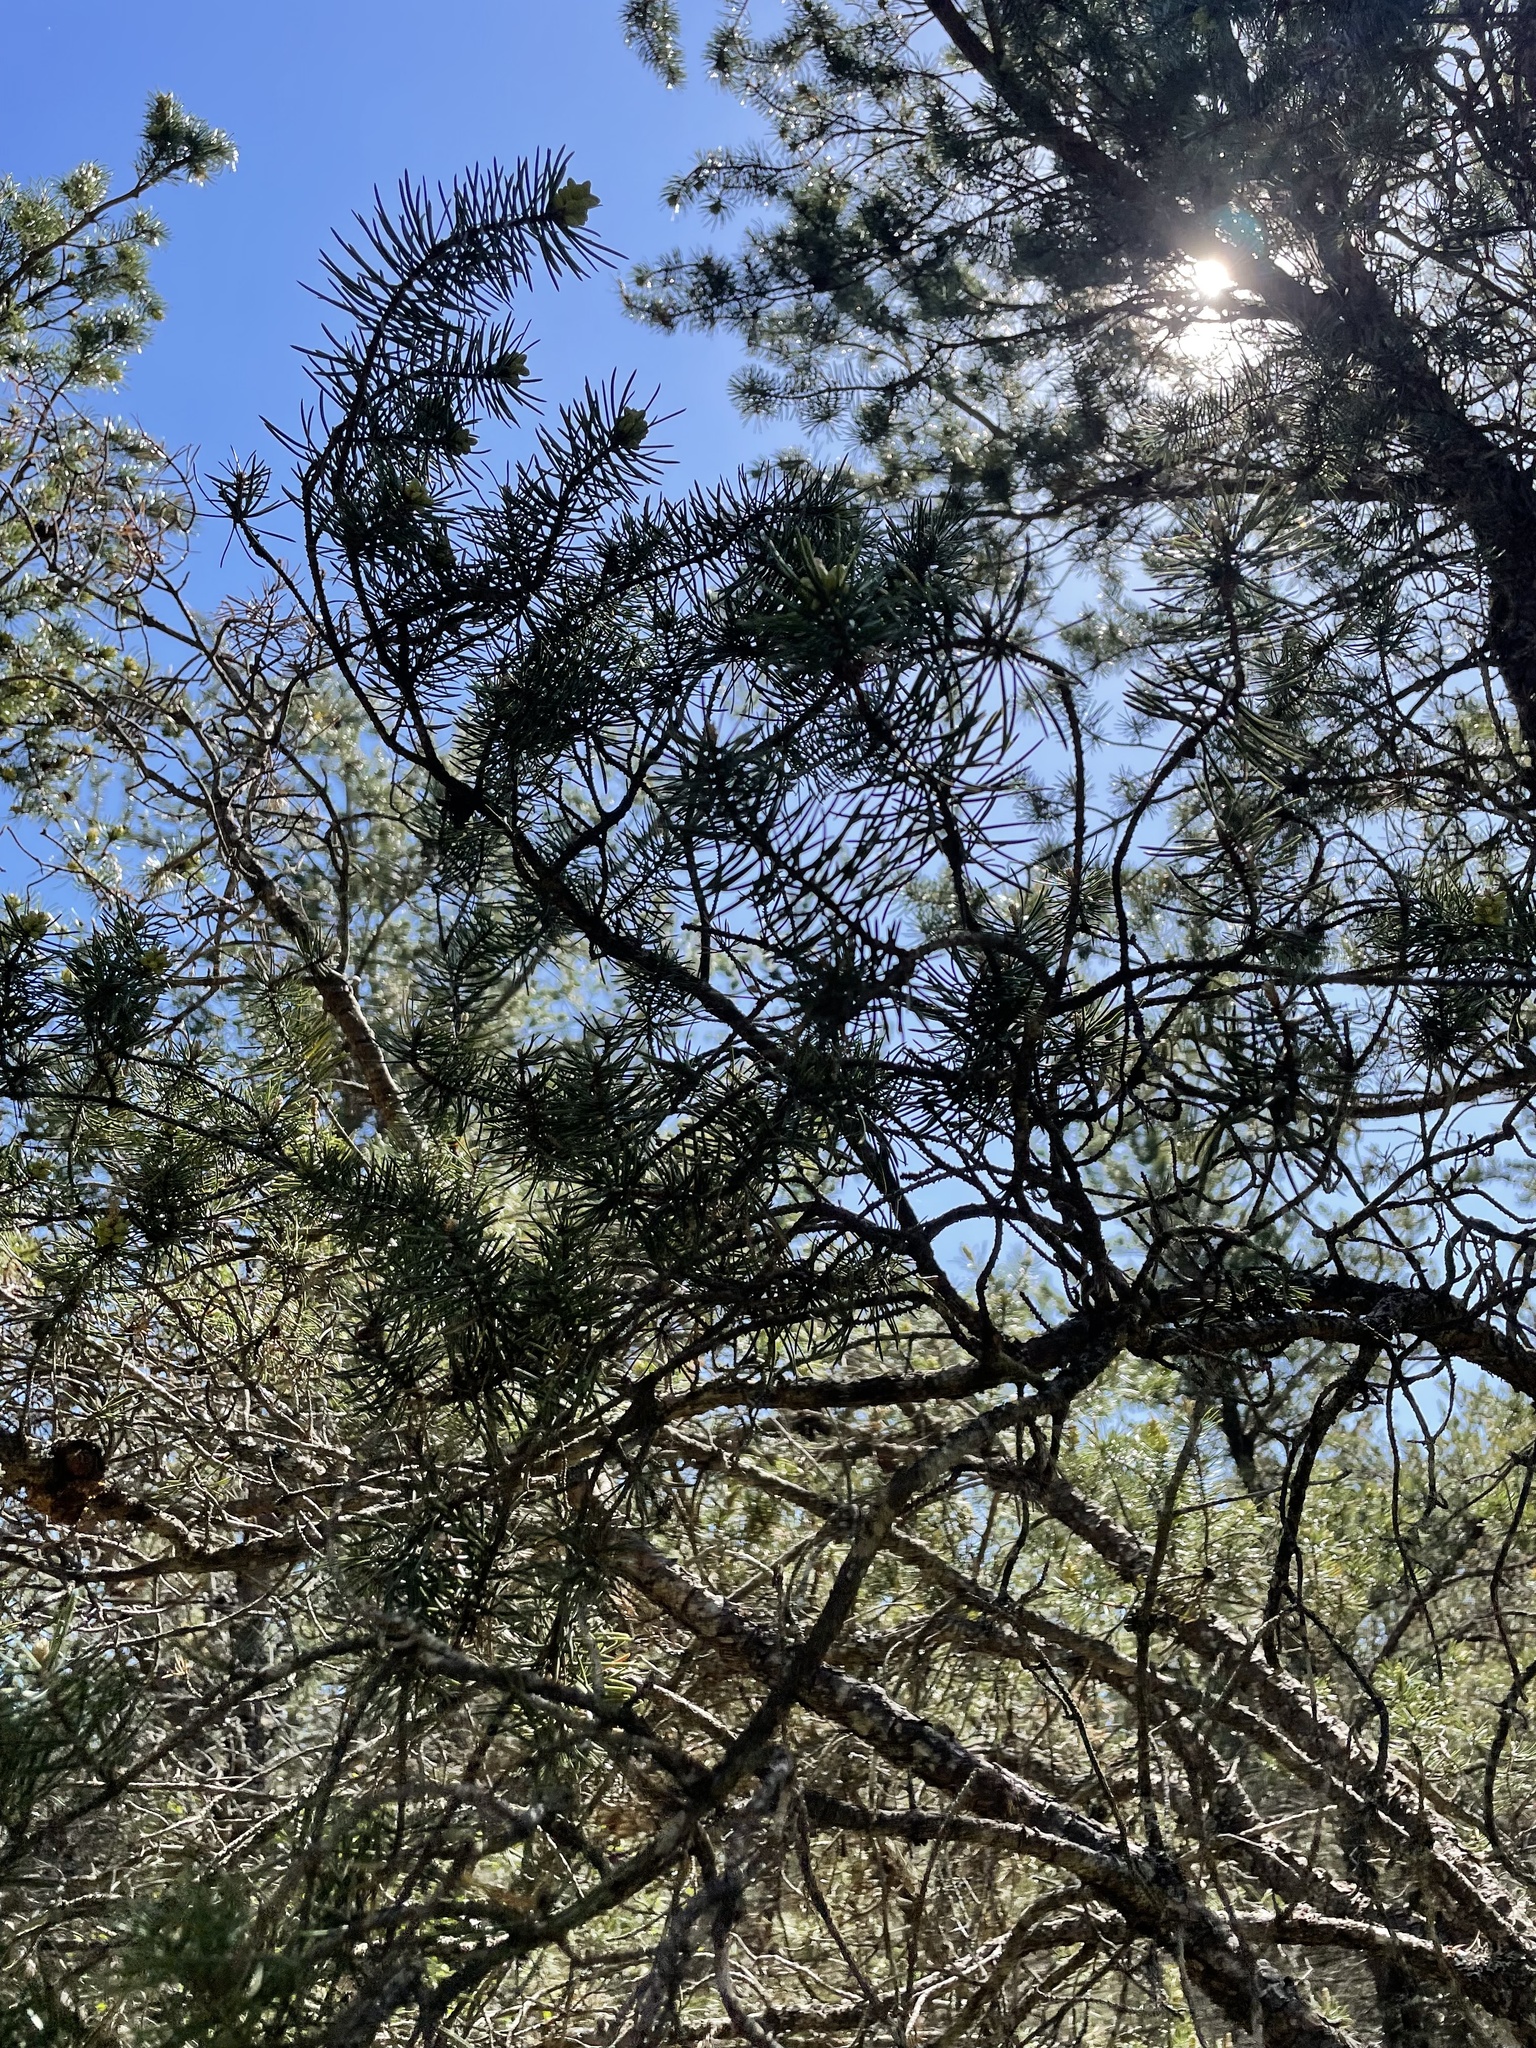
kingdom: Plantae
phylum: Tracheophyta
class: Pinopsida
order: Pinales
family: Pinaceae
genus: Pinus
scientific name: Pinus banksiana
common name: Jack pine
